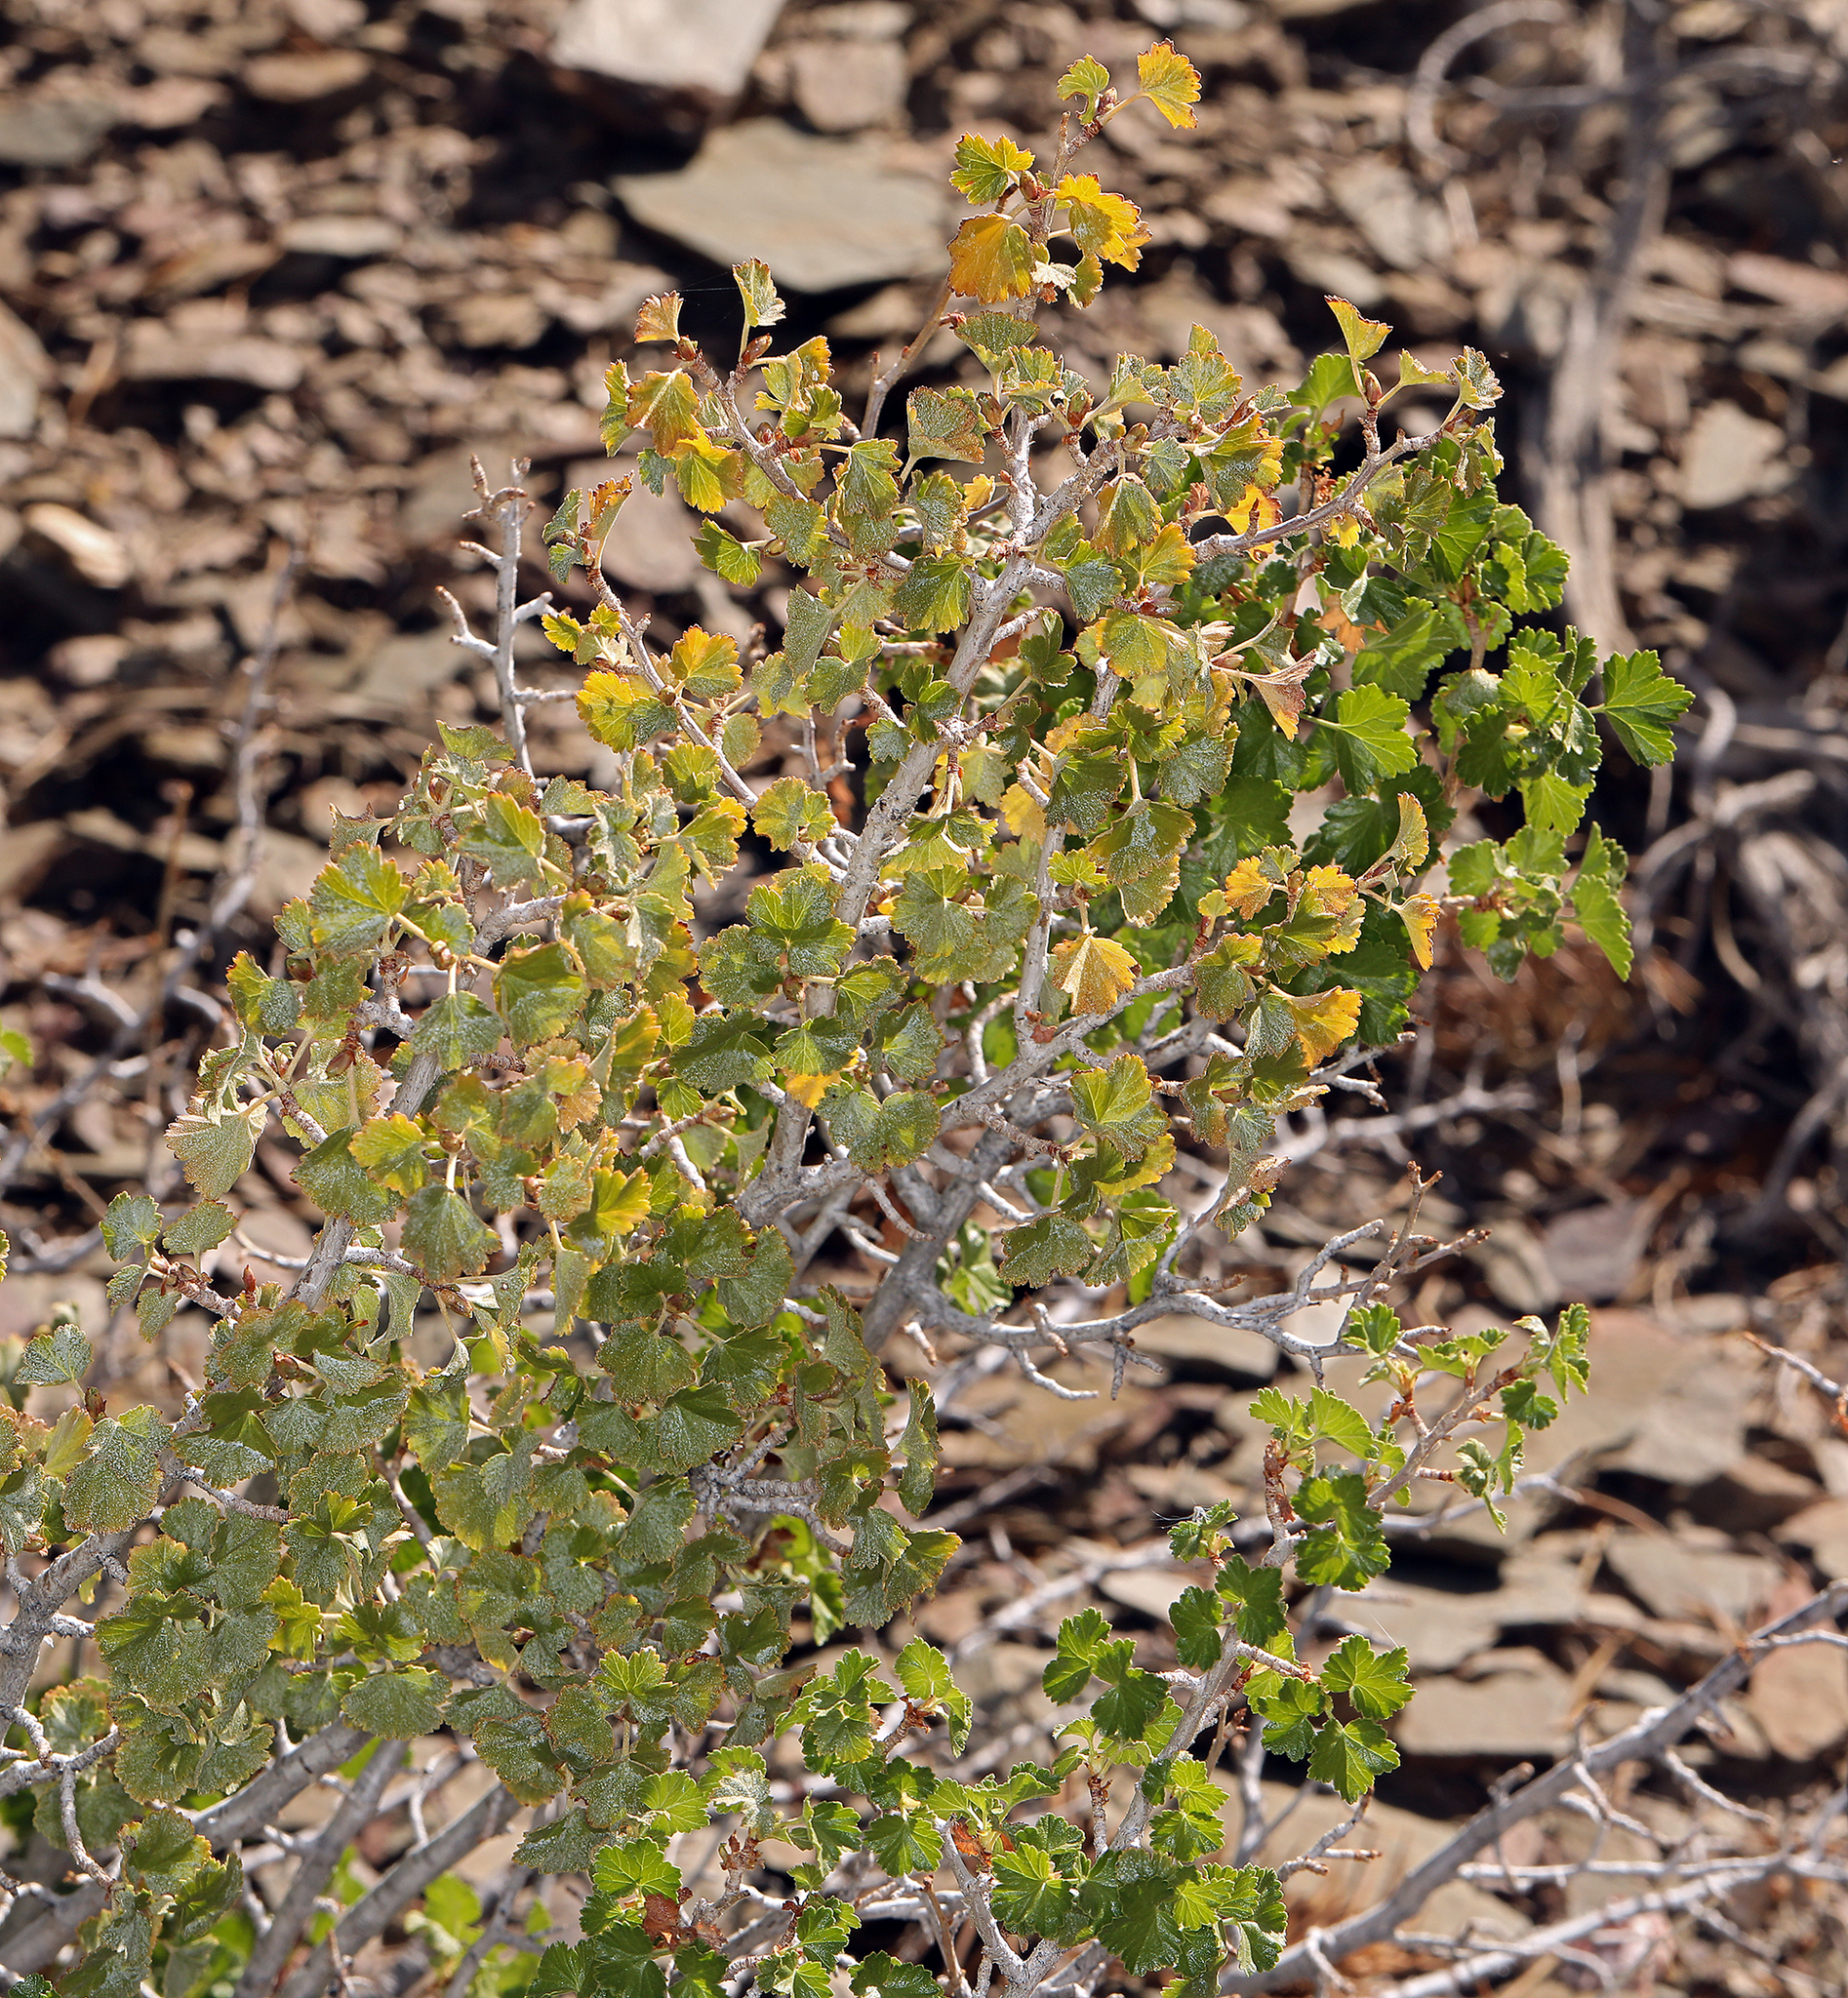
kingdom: Plantae
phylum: Tracheophyta
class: Magnoliopsida
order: Saxifragales
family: Grossulariaceae
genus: Ribes
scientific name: Ribes cereum
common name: Wax currant
